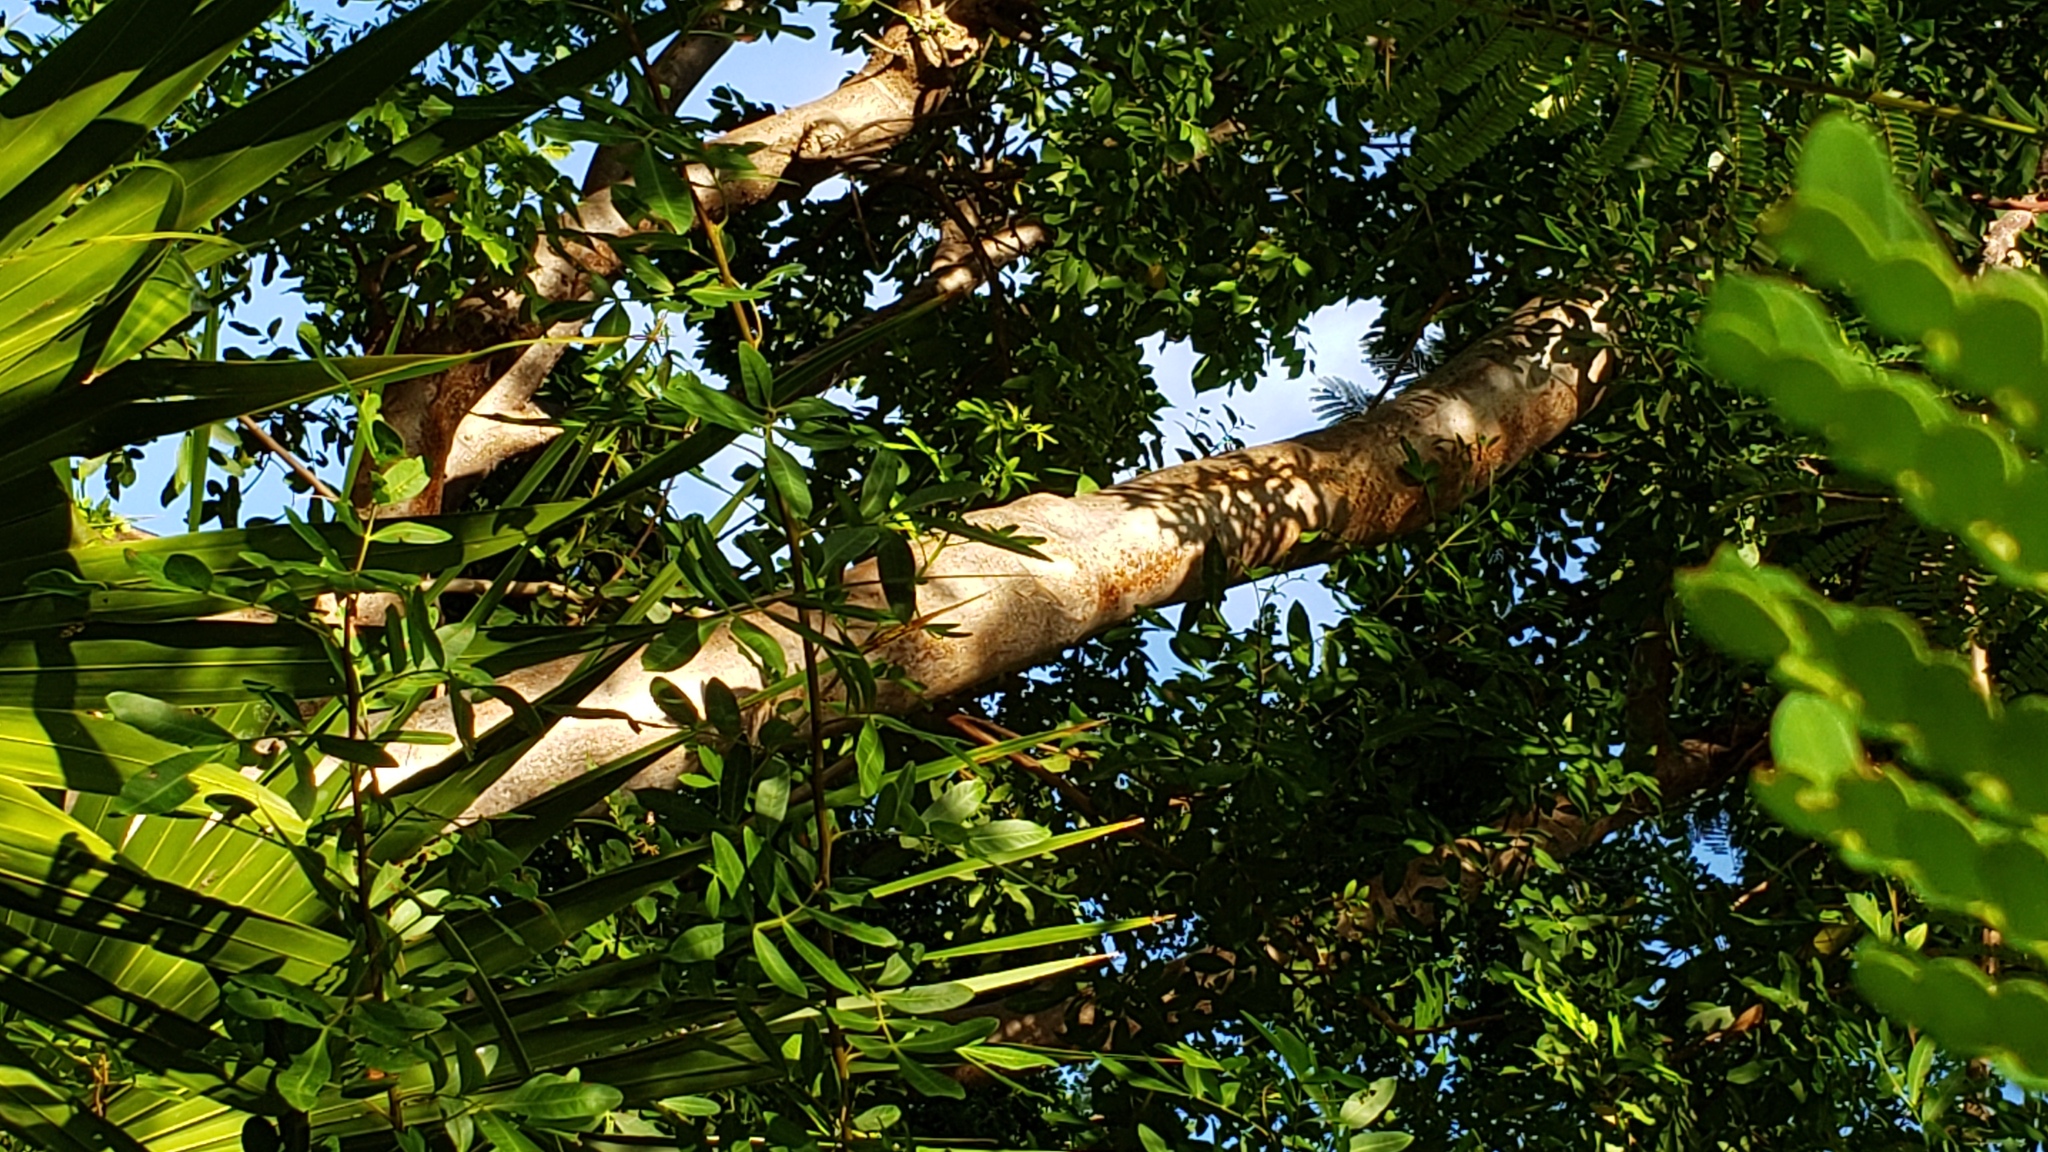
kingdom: Plantae
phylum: Tracheophyta
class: Magnoliopsida
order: Fabales
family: Fabaceae
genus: Delonix
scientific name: Delonix regia
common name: Royal poinciana
